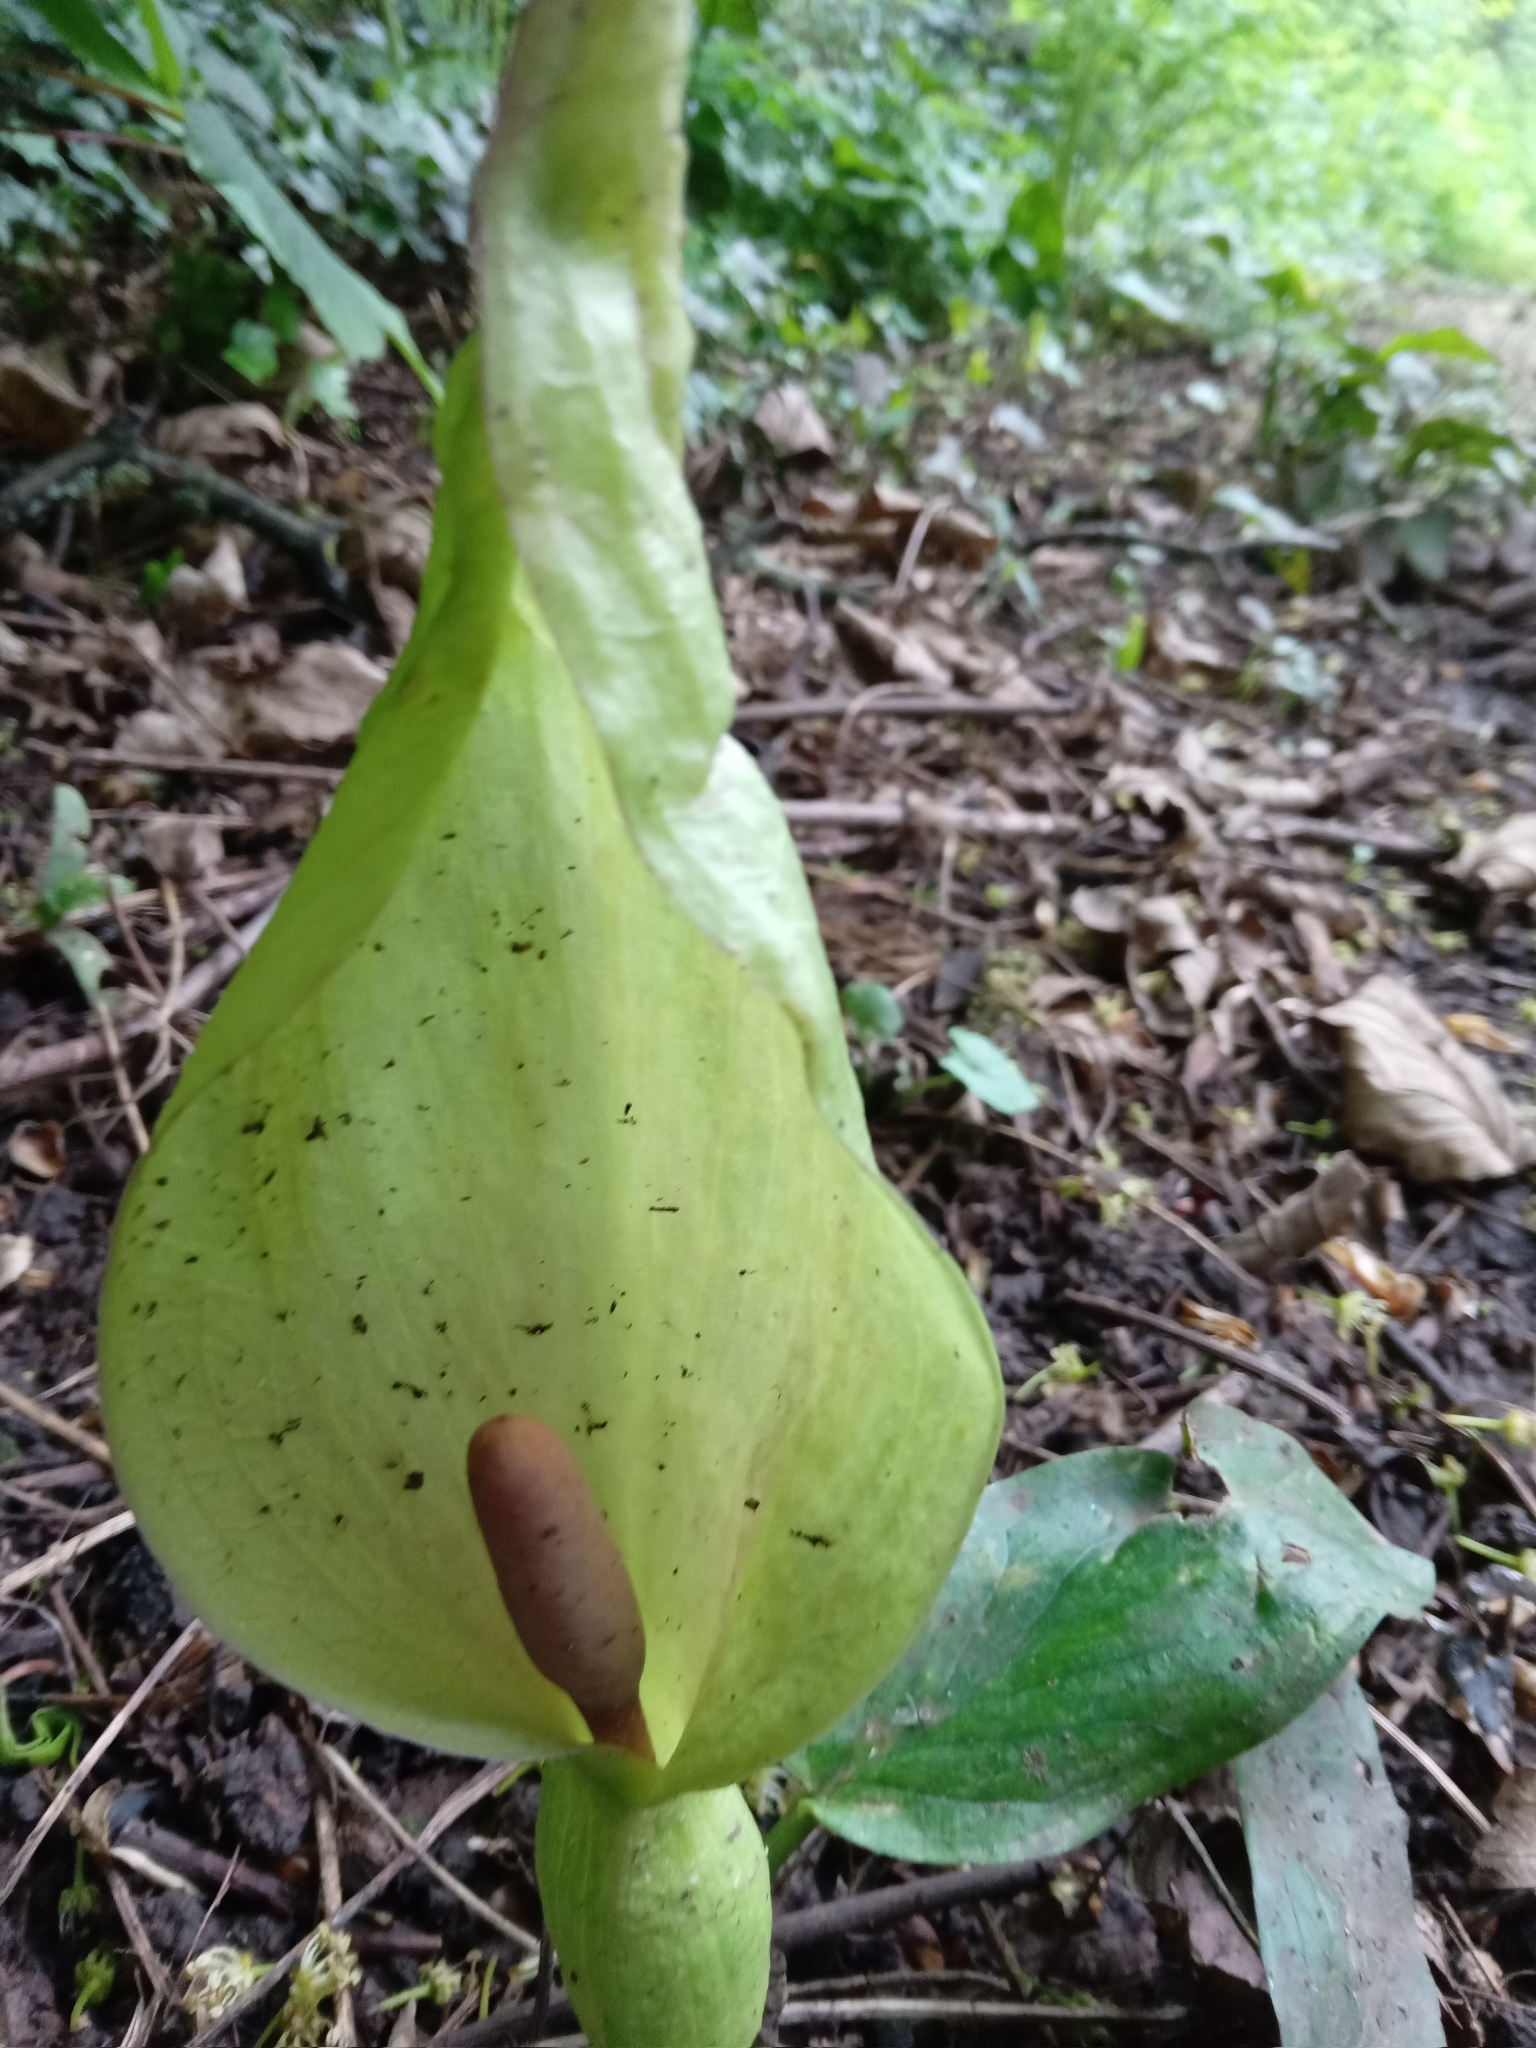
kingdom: Plantae
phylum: Tracheophyta
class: Liliopsida
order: Alismatales
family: Araceae
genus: Arum
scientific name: Arum maculatum
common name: Lords-and-ladies
